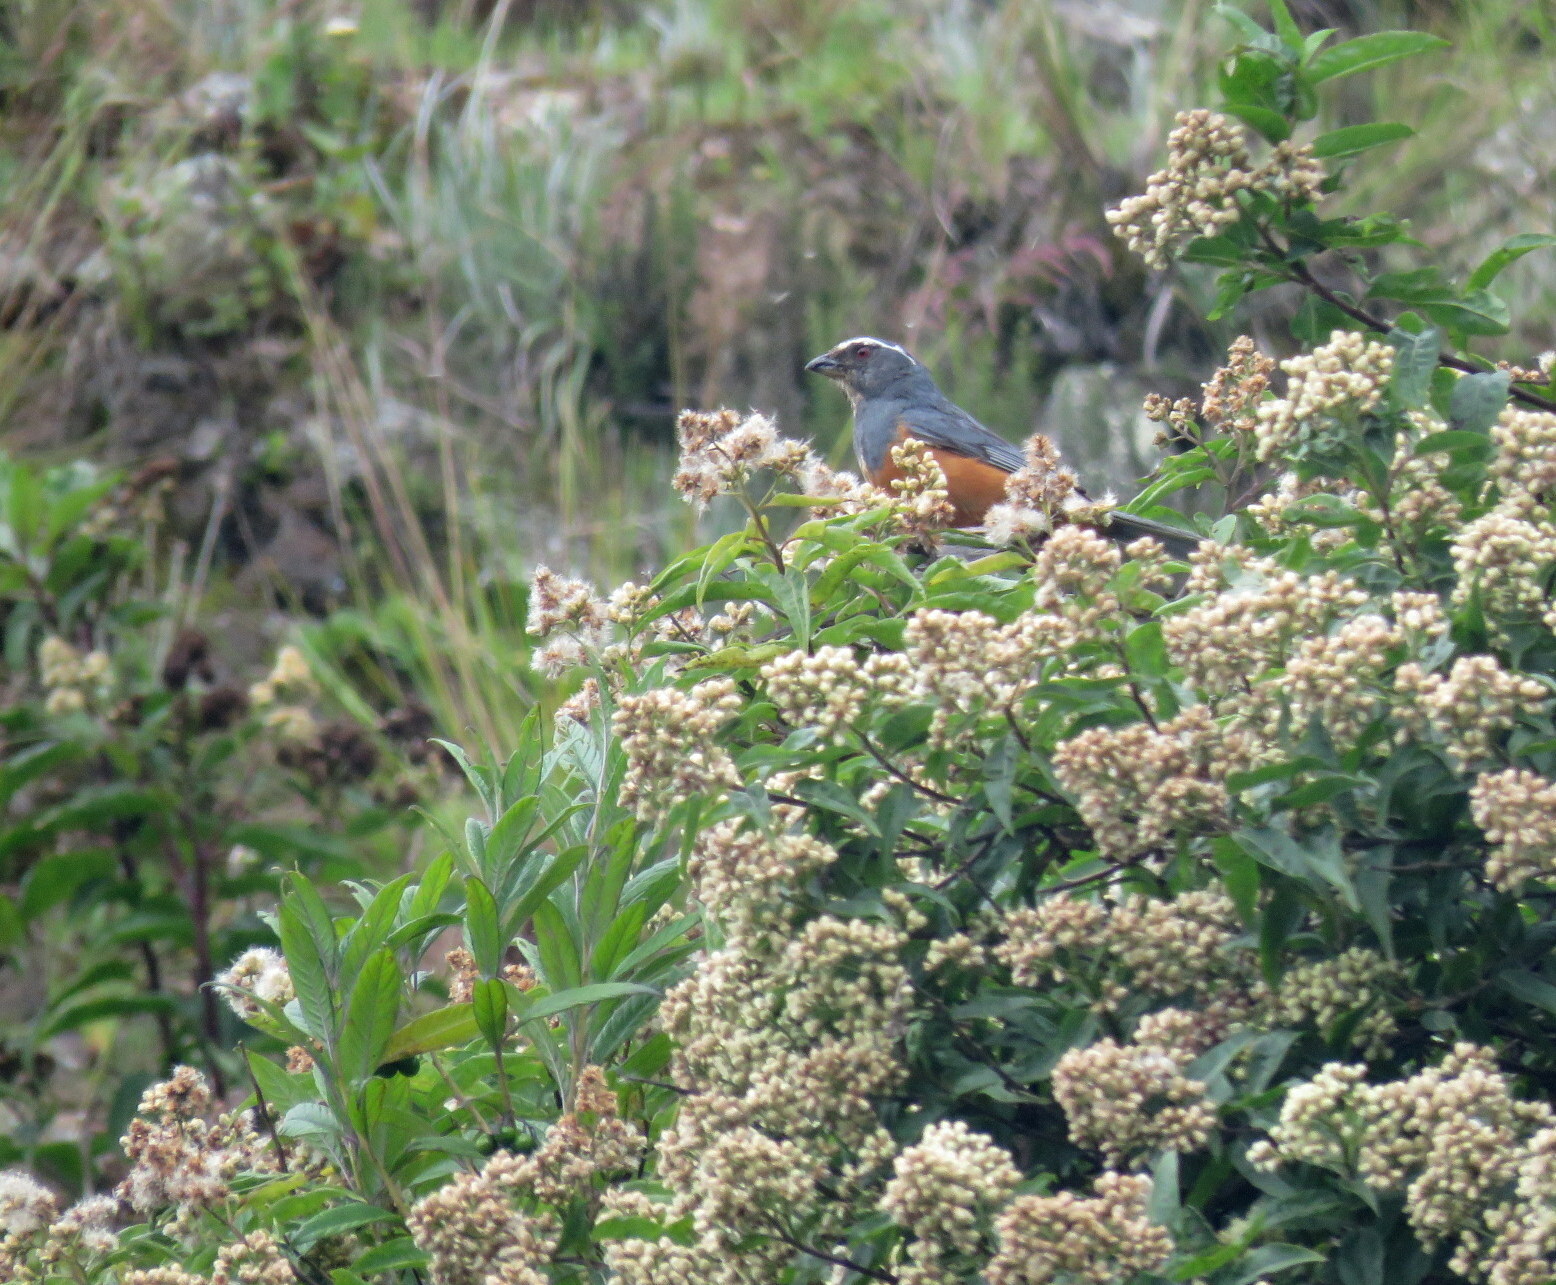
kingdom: Animalia
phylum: Chordata
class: Aves
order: Passeriformes
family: Thraupidae
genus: Pseudosaltator
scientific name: Pseudosaltator rufiventris
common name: Rufous-bellied mountain-tanager
